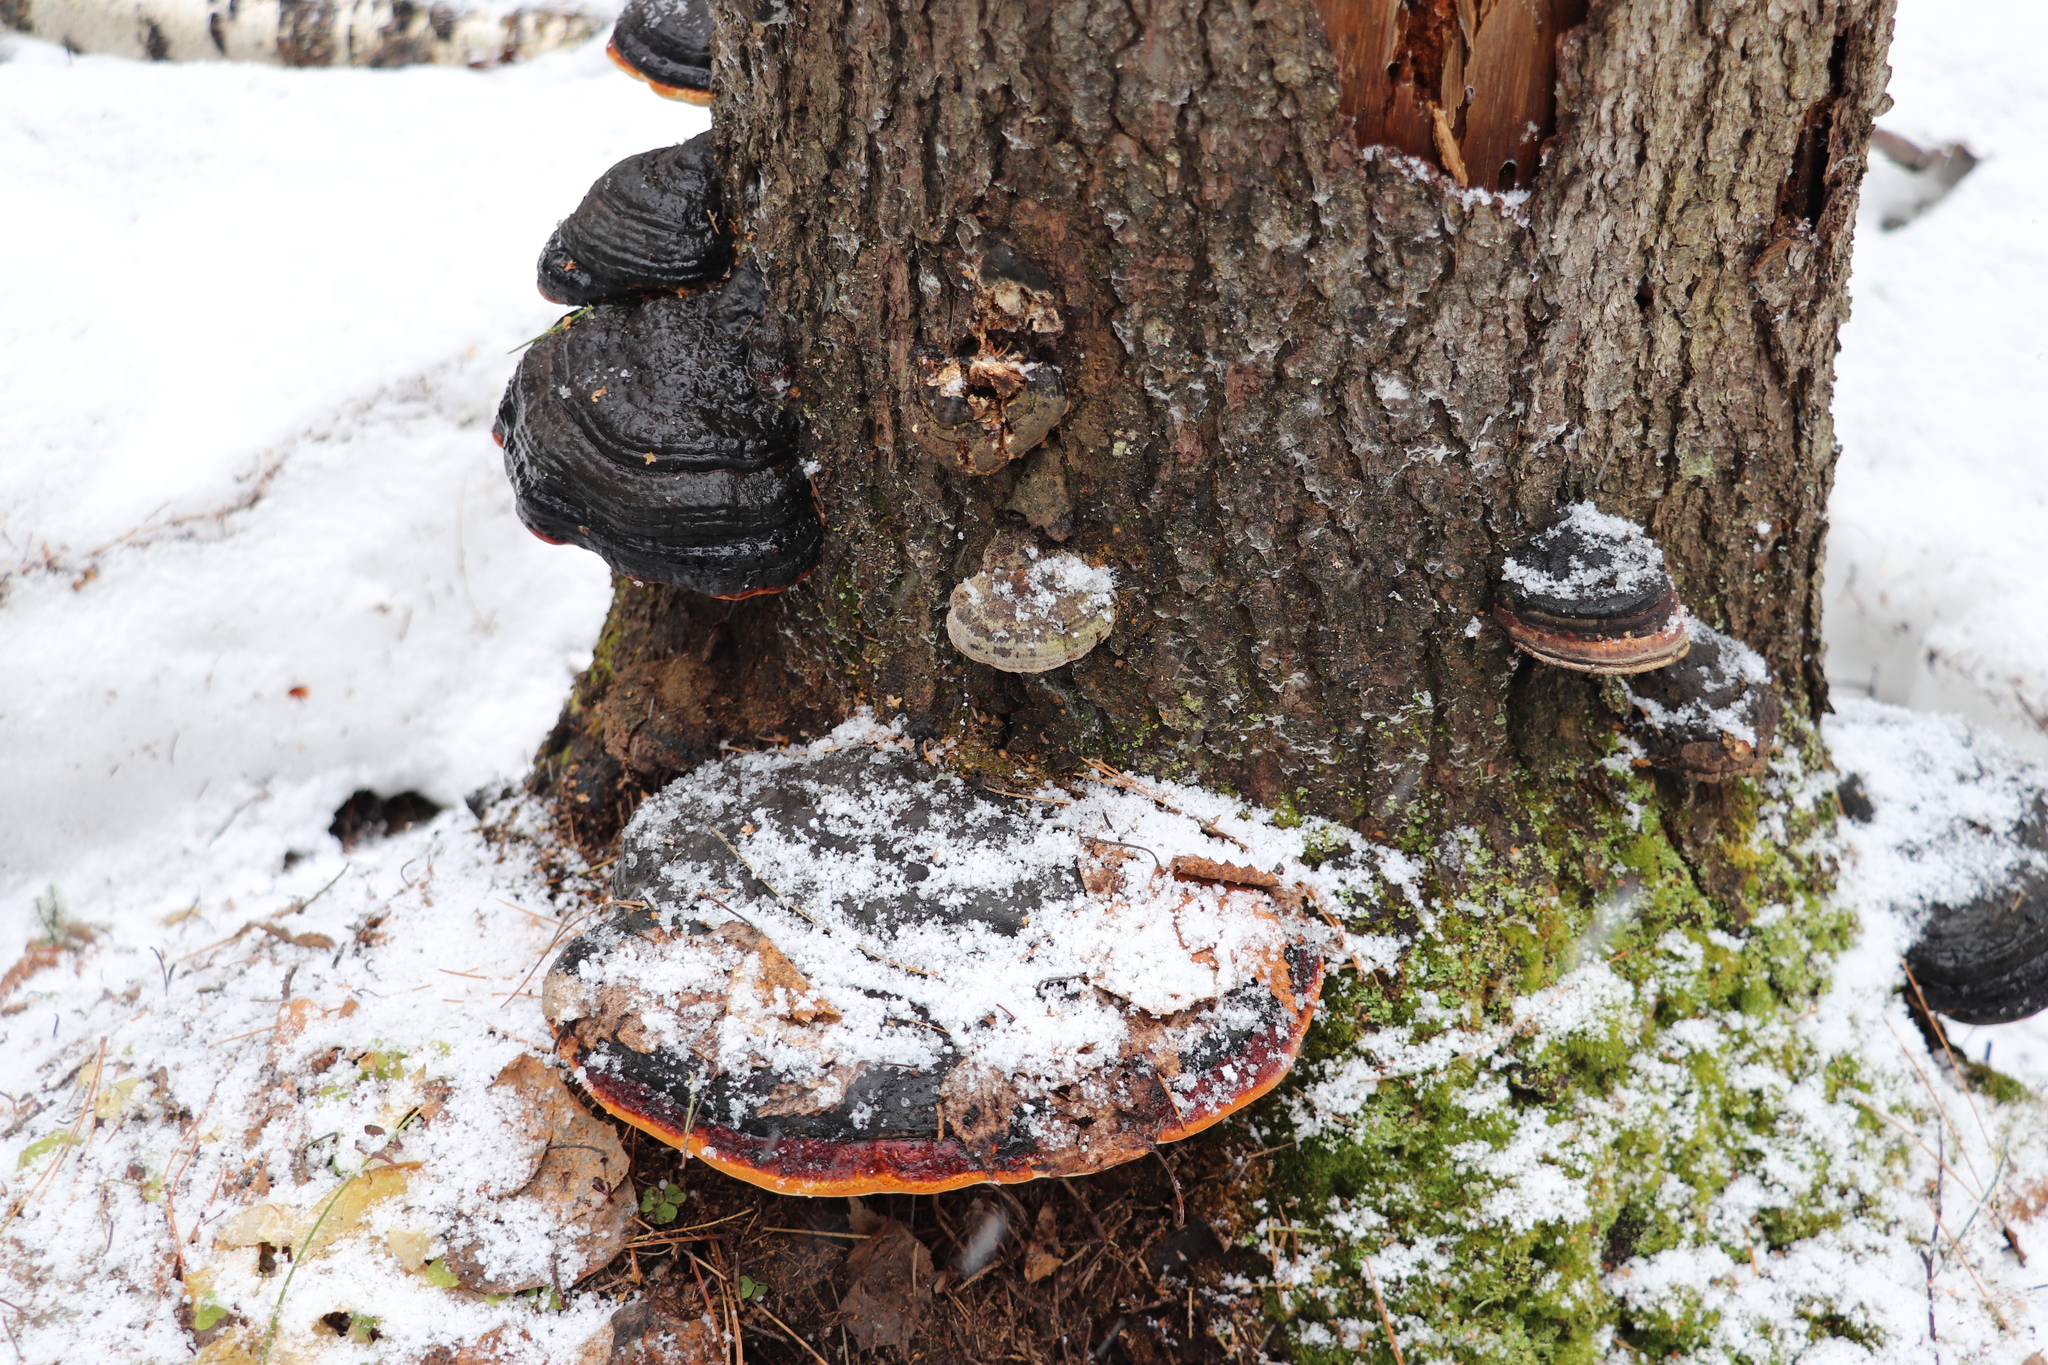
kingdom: Fungi
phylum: Basidiomycota
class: Agaricomycetes
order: Polyporales
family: Fomitopsidaceae
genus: Fomitopsis
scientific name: Fomitopsis pinicola
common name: Red-belted bracket
